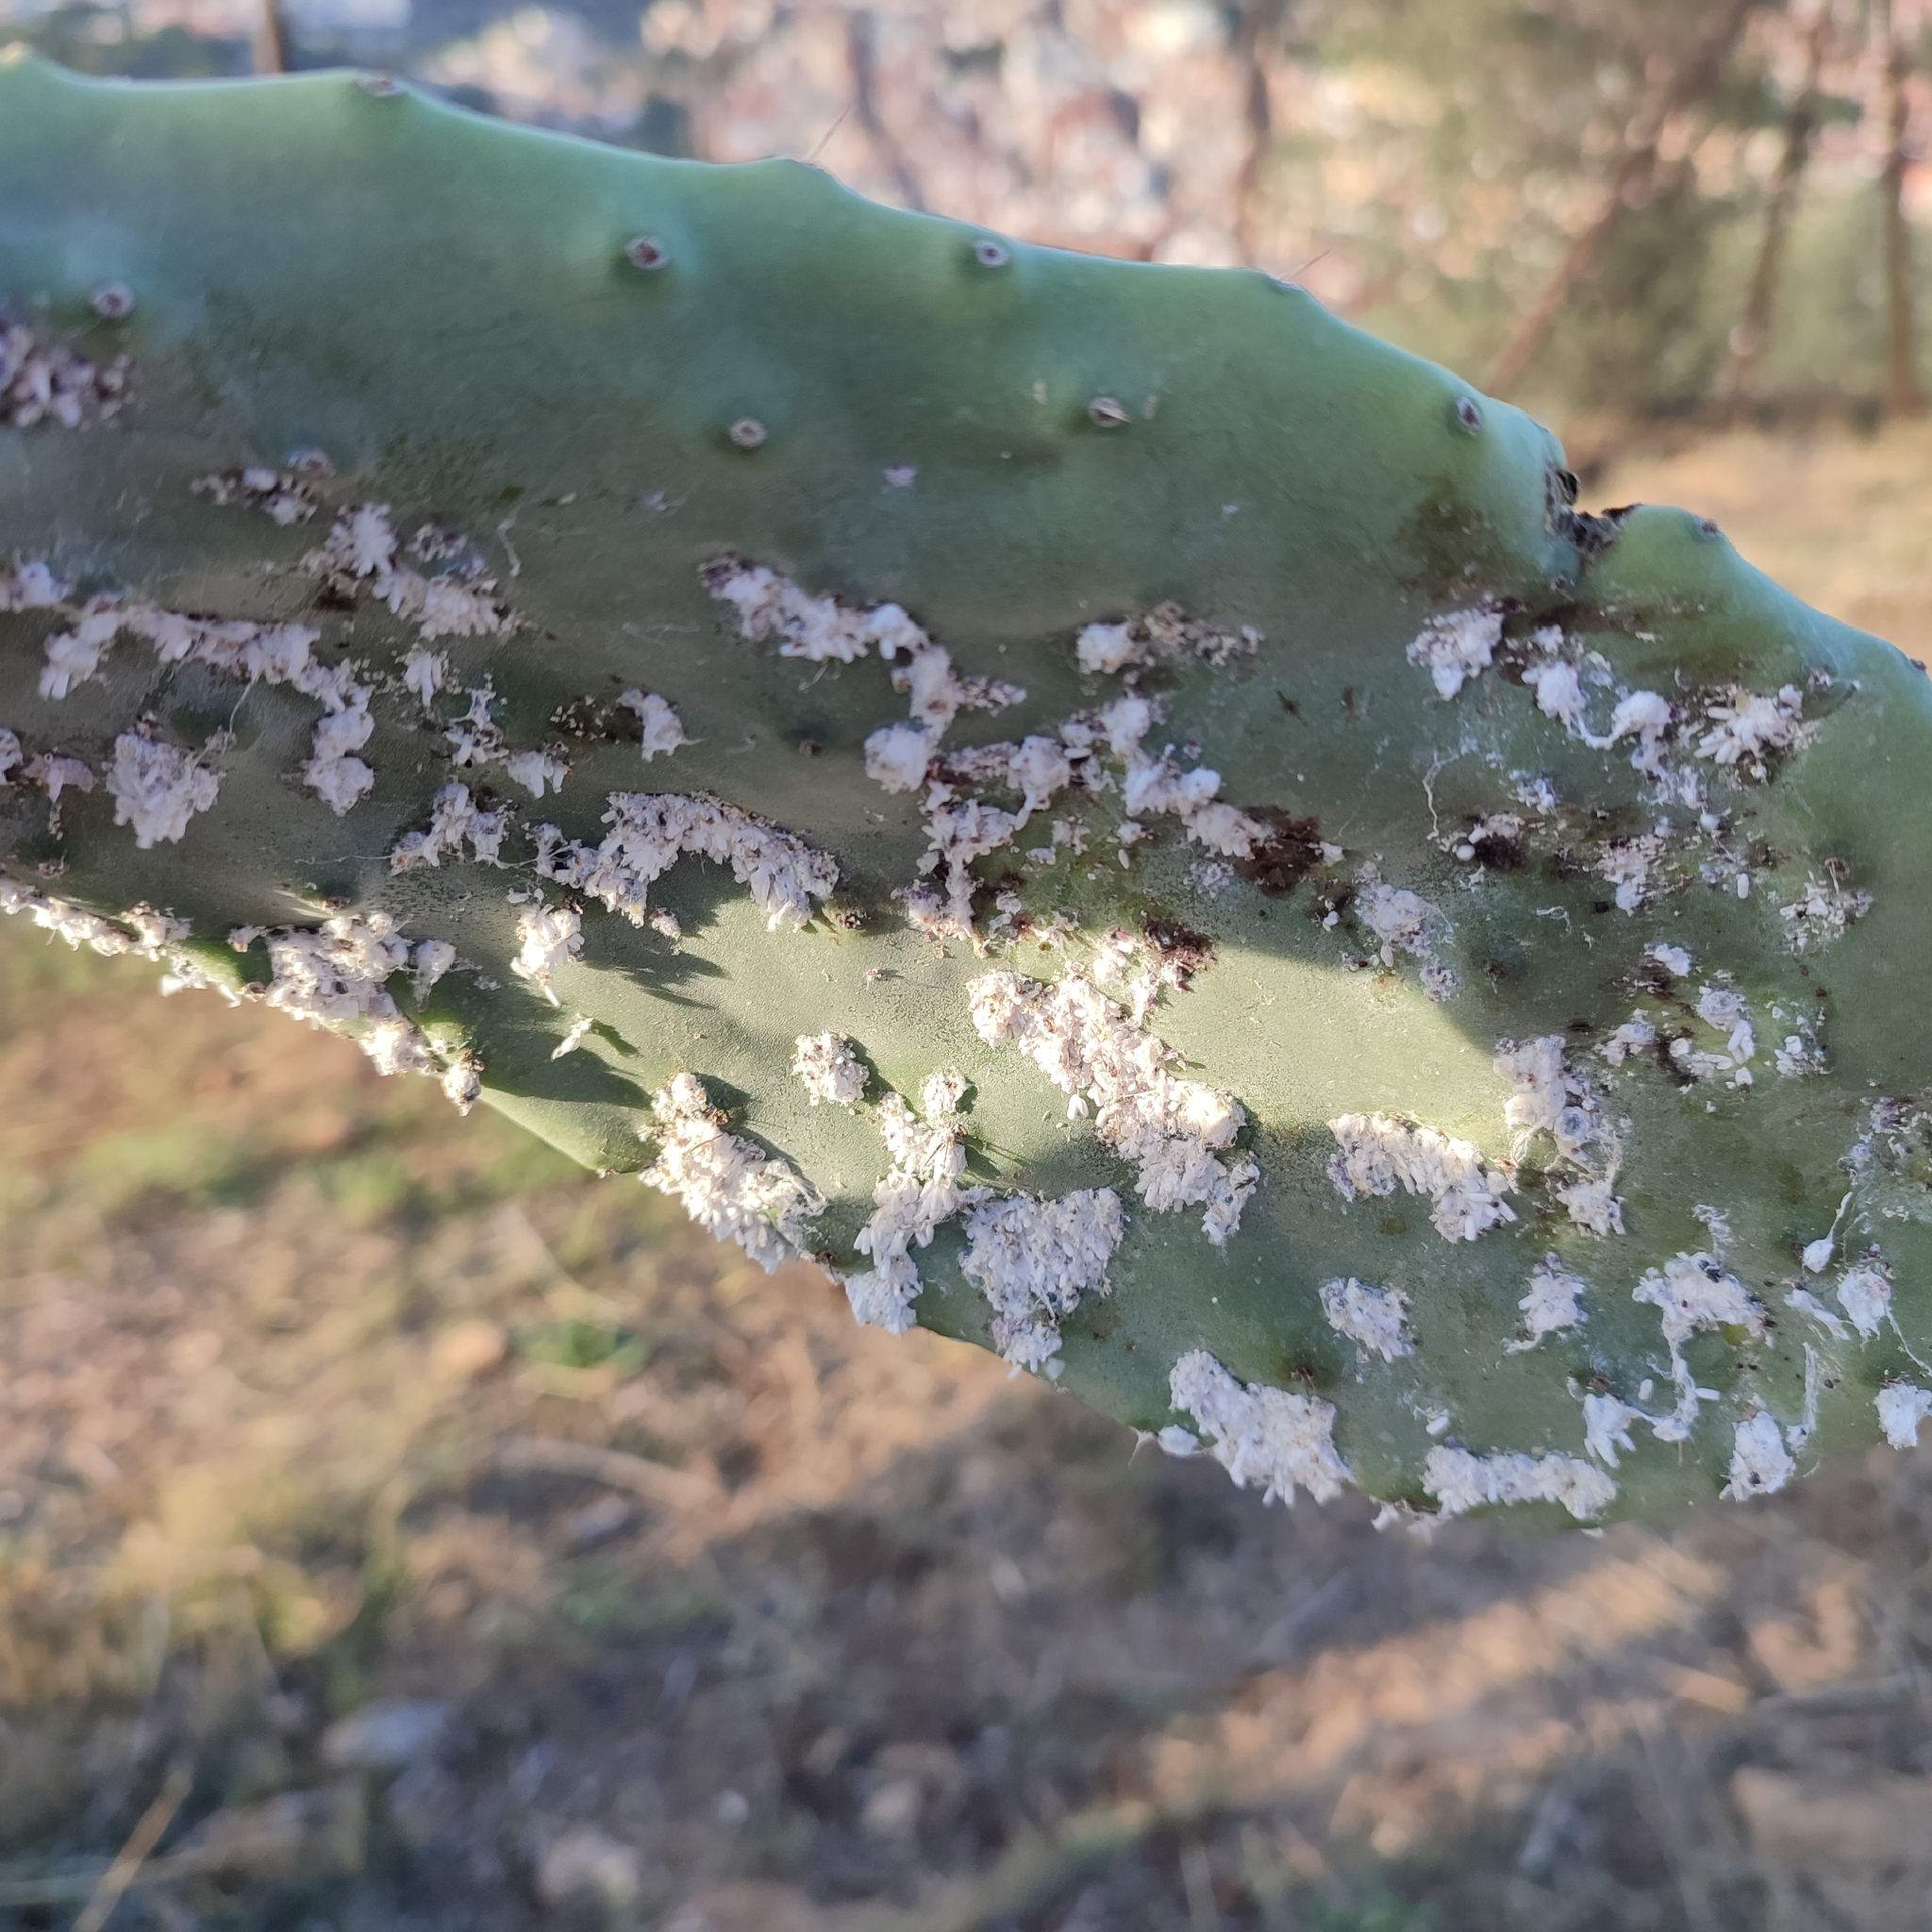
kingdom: Animalia
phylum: Arthropoda
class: Insecta
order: Hemiptera
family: Dactylopiidae
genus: Dactylopius
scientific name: Dactylopius opuntiae
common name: Opuntia cochineal scale
